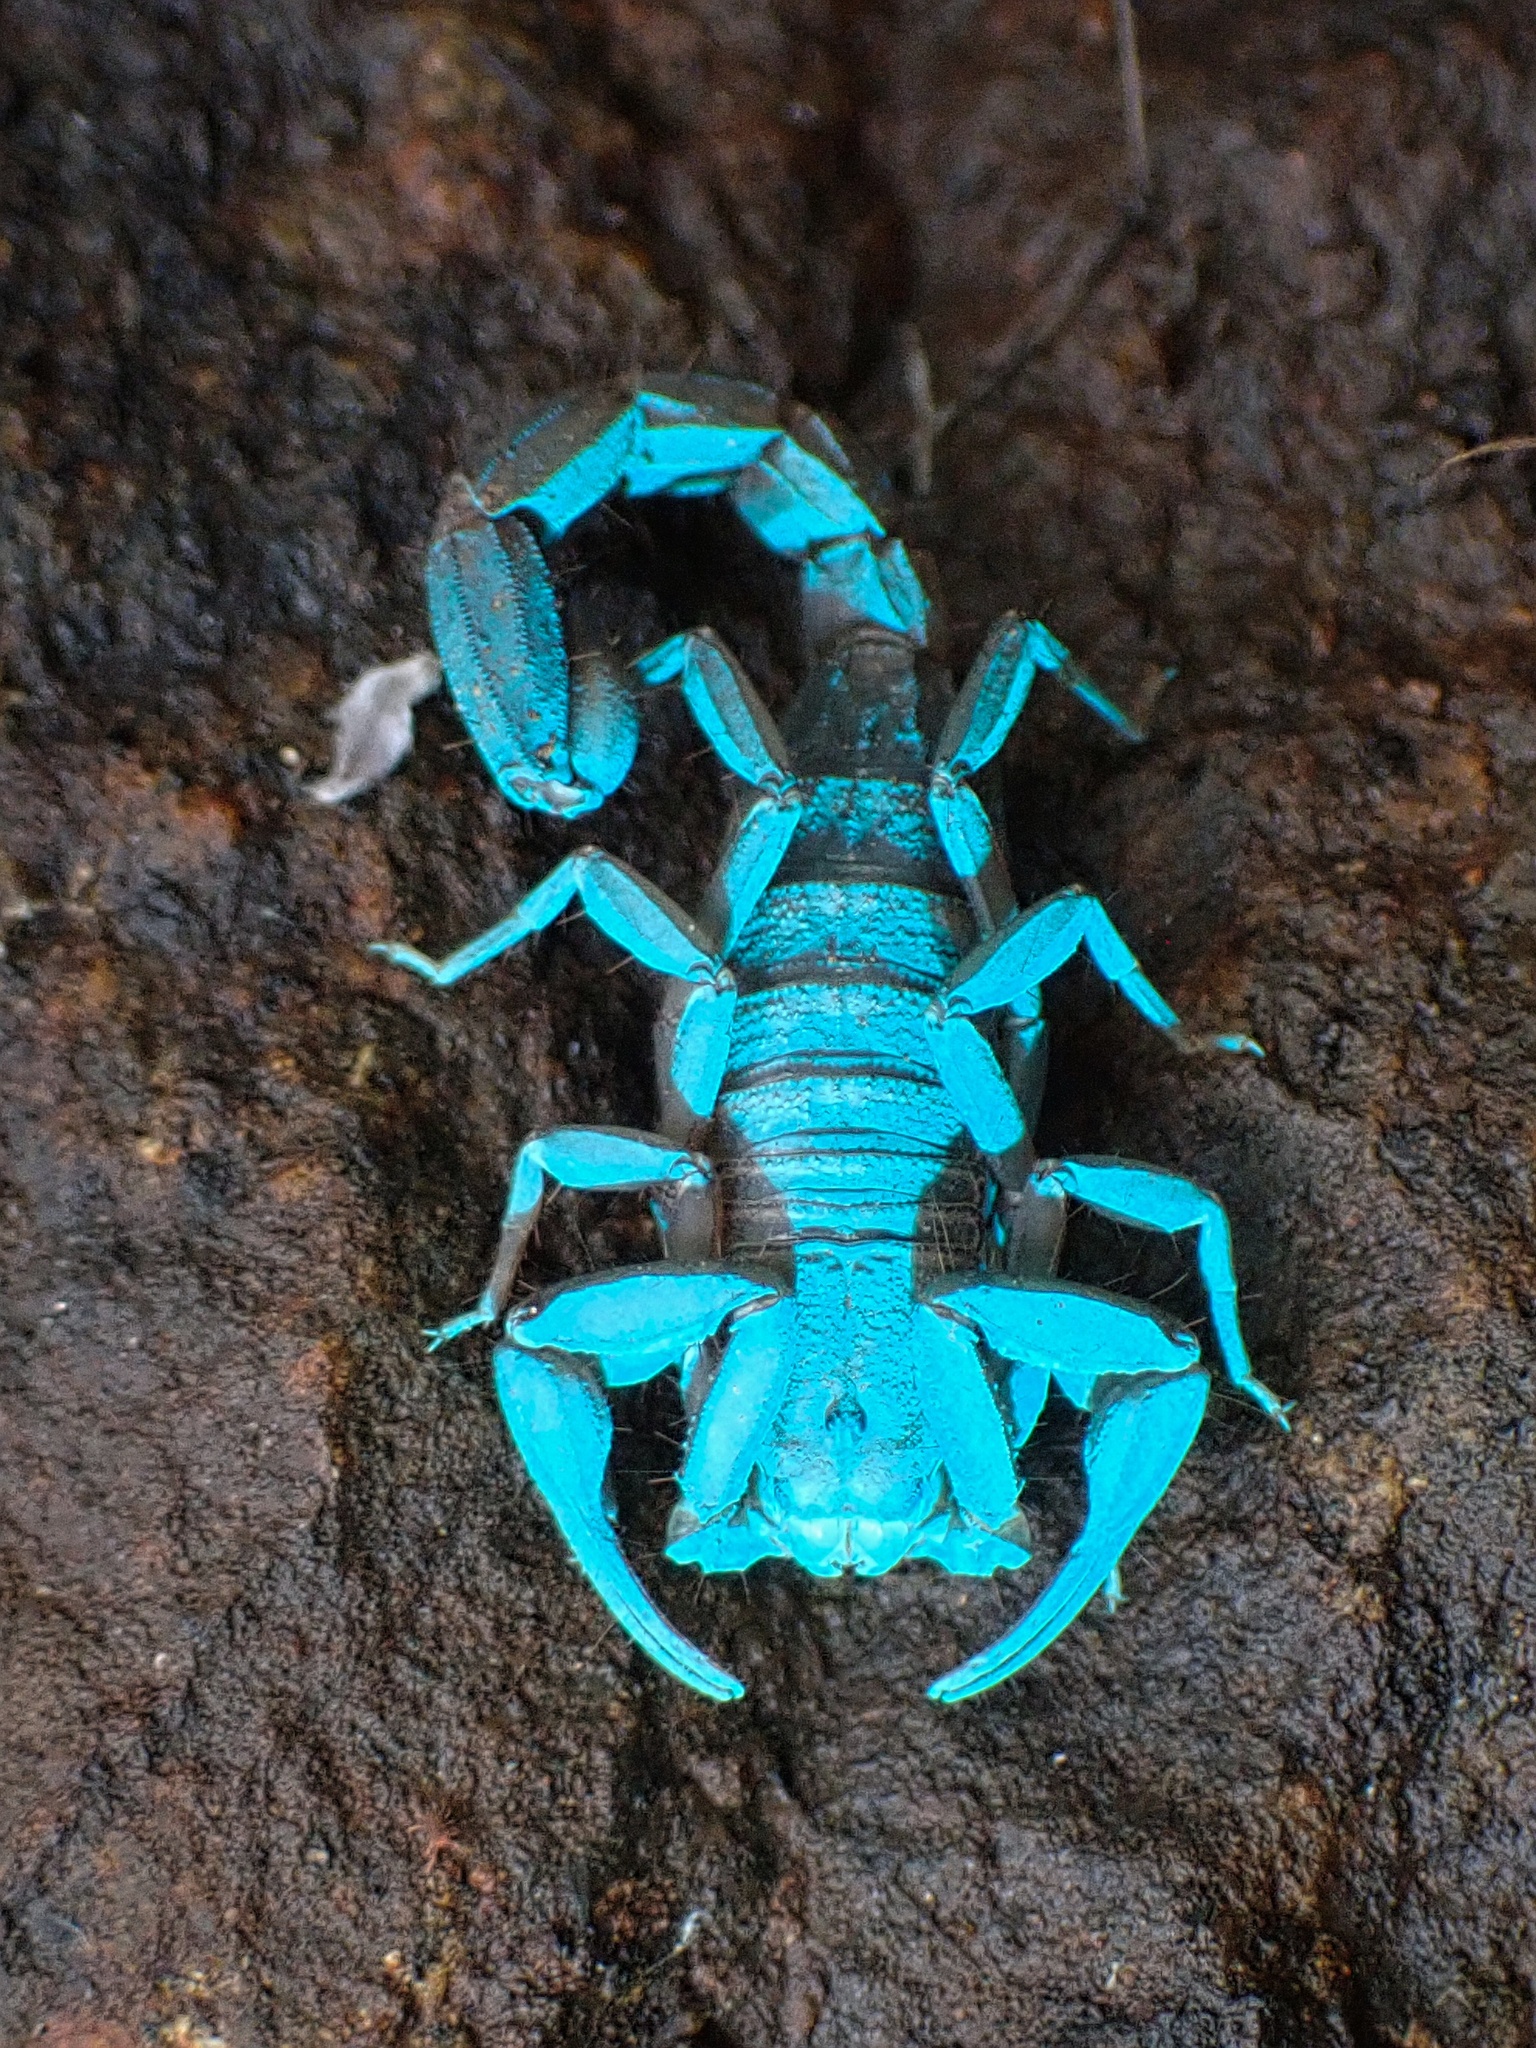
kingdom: Animalia
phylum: Arthropoda
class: Arachnida
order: Scorpiones
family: Vaejovidae
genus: Serradigitus
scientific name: Serradigitus gertschi
